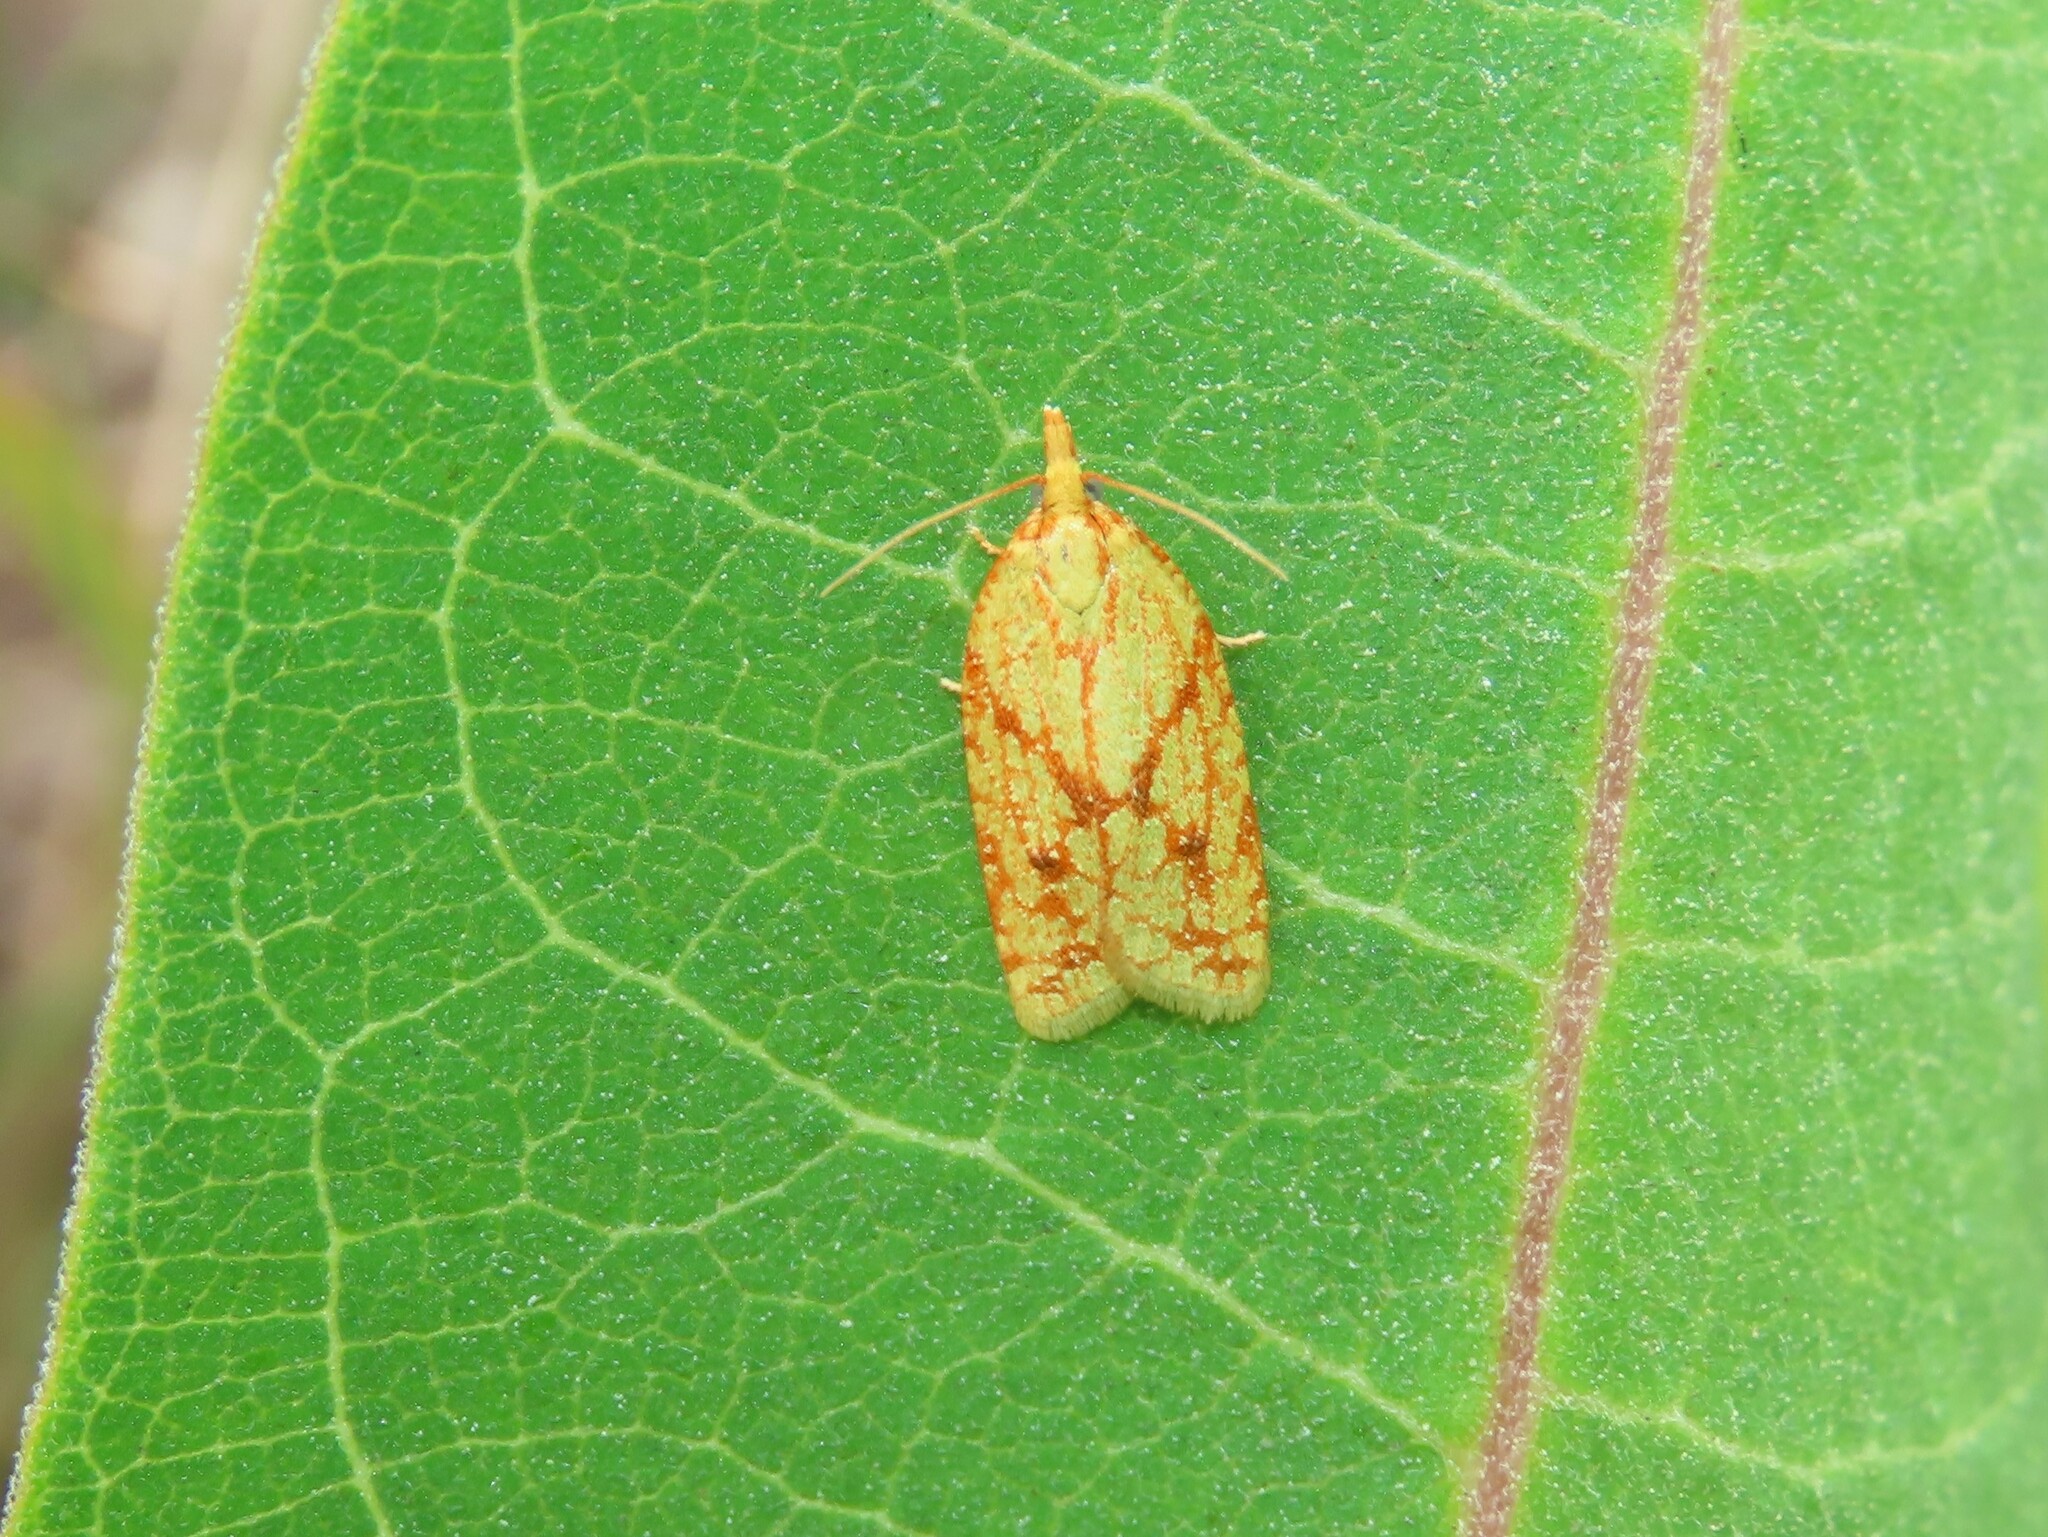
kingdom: Animalia
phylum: Arthropoda
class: Insecta
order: Lepidoptera
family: Tortricidae
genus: Sparganothis
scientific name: Sparganothis sulfureana
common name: Sparganothis fruitworm moth
